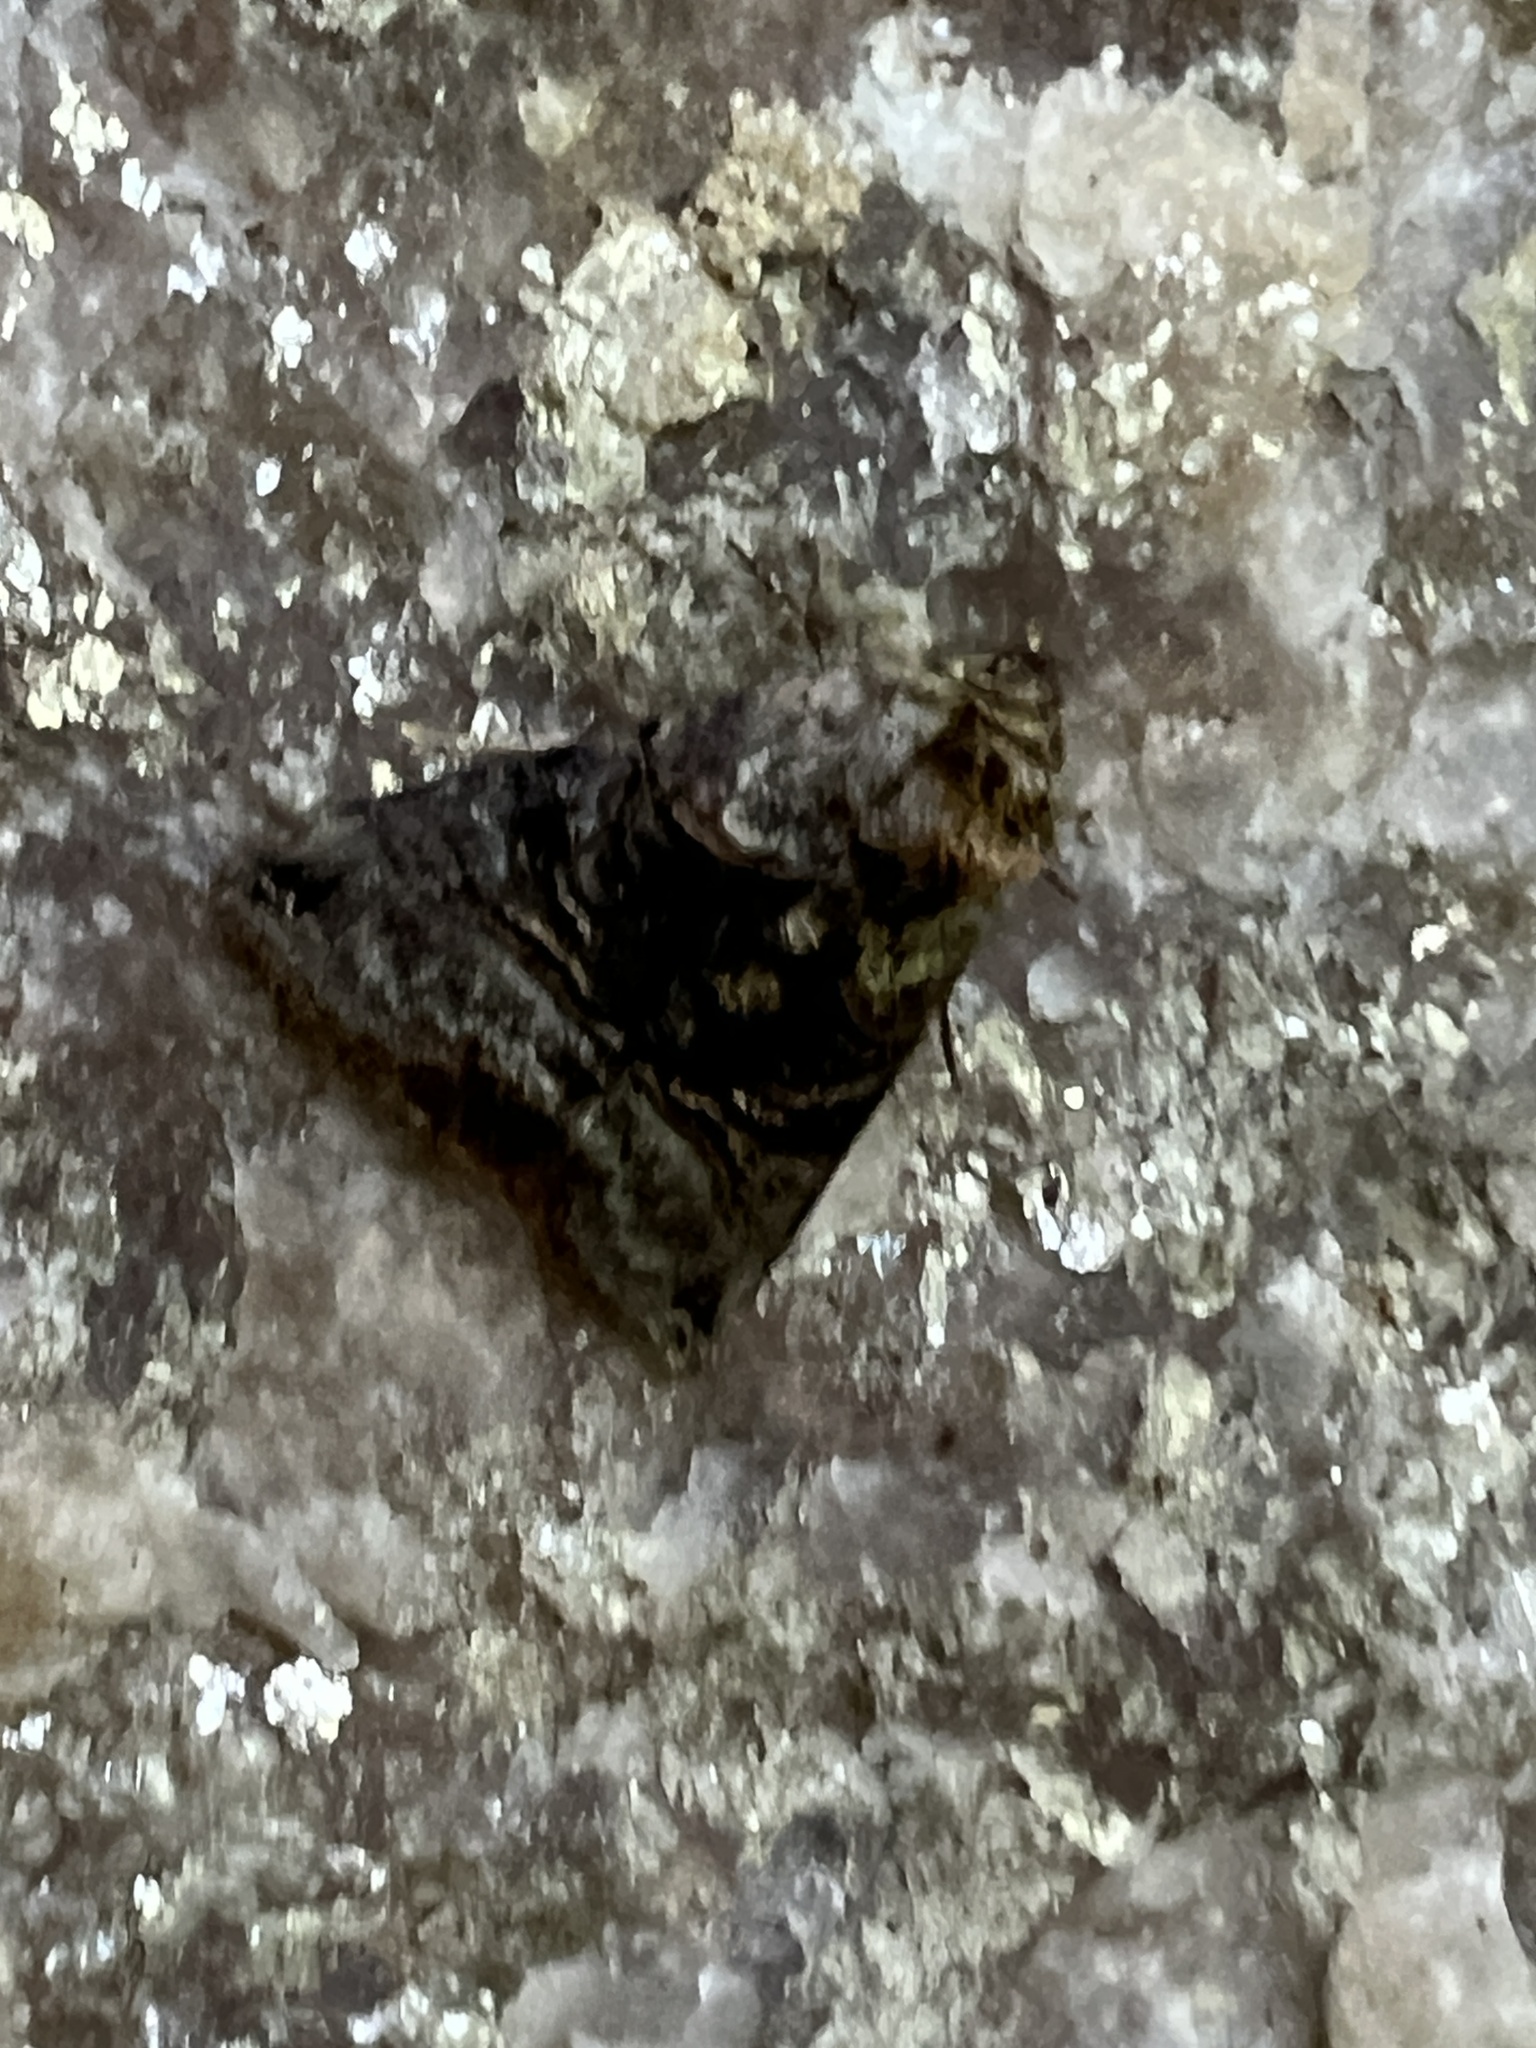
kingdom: Animalia
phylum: Arthropoda
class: Insecta
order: Lepidoptera
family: Noctuidae
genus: Abrostola
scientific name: Abrostola tripartita
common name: Spectacle
